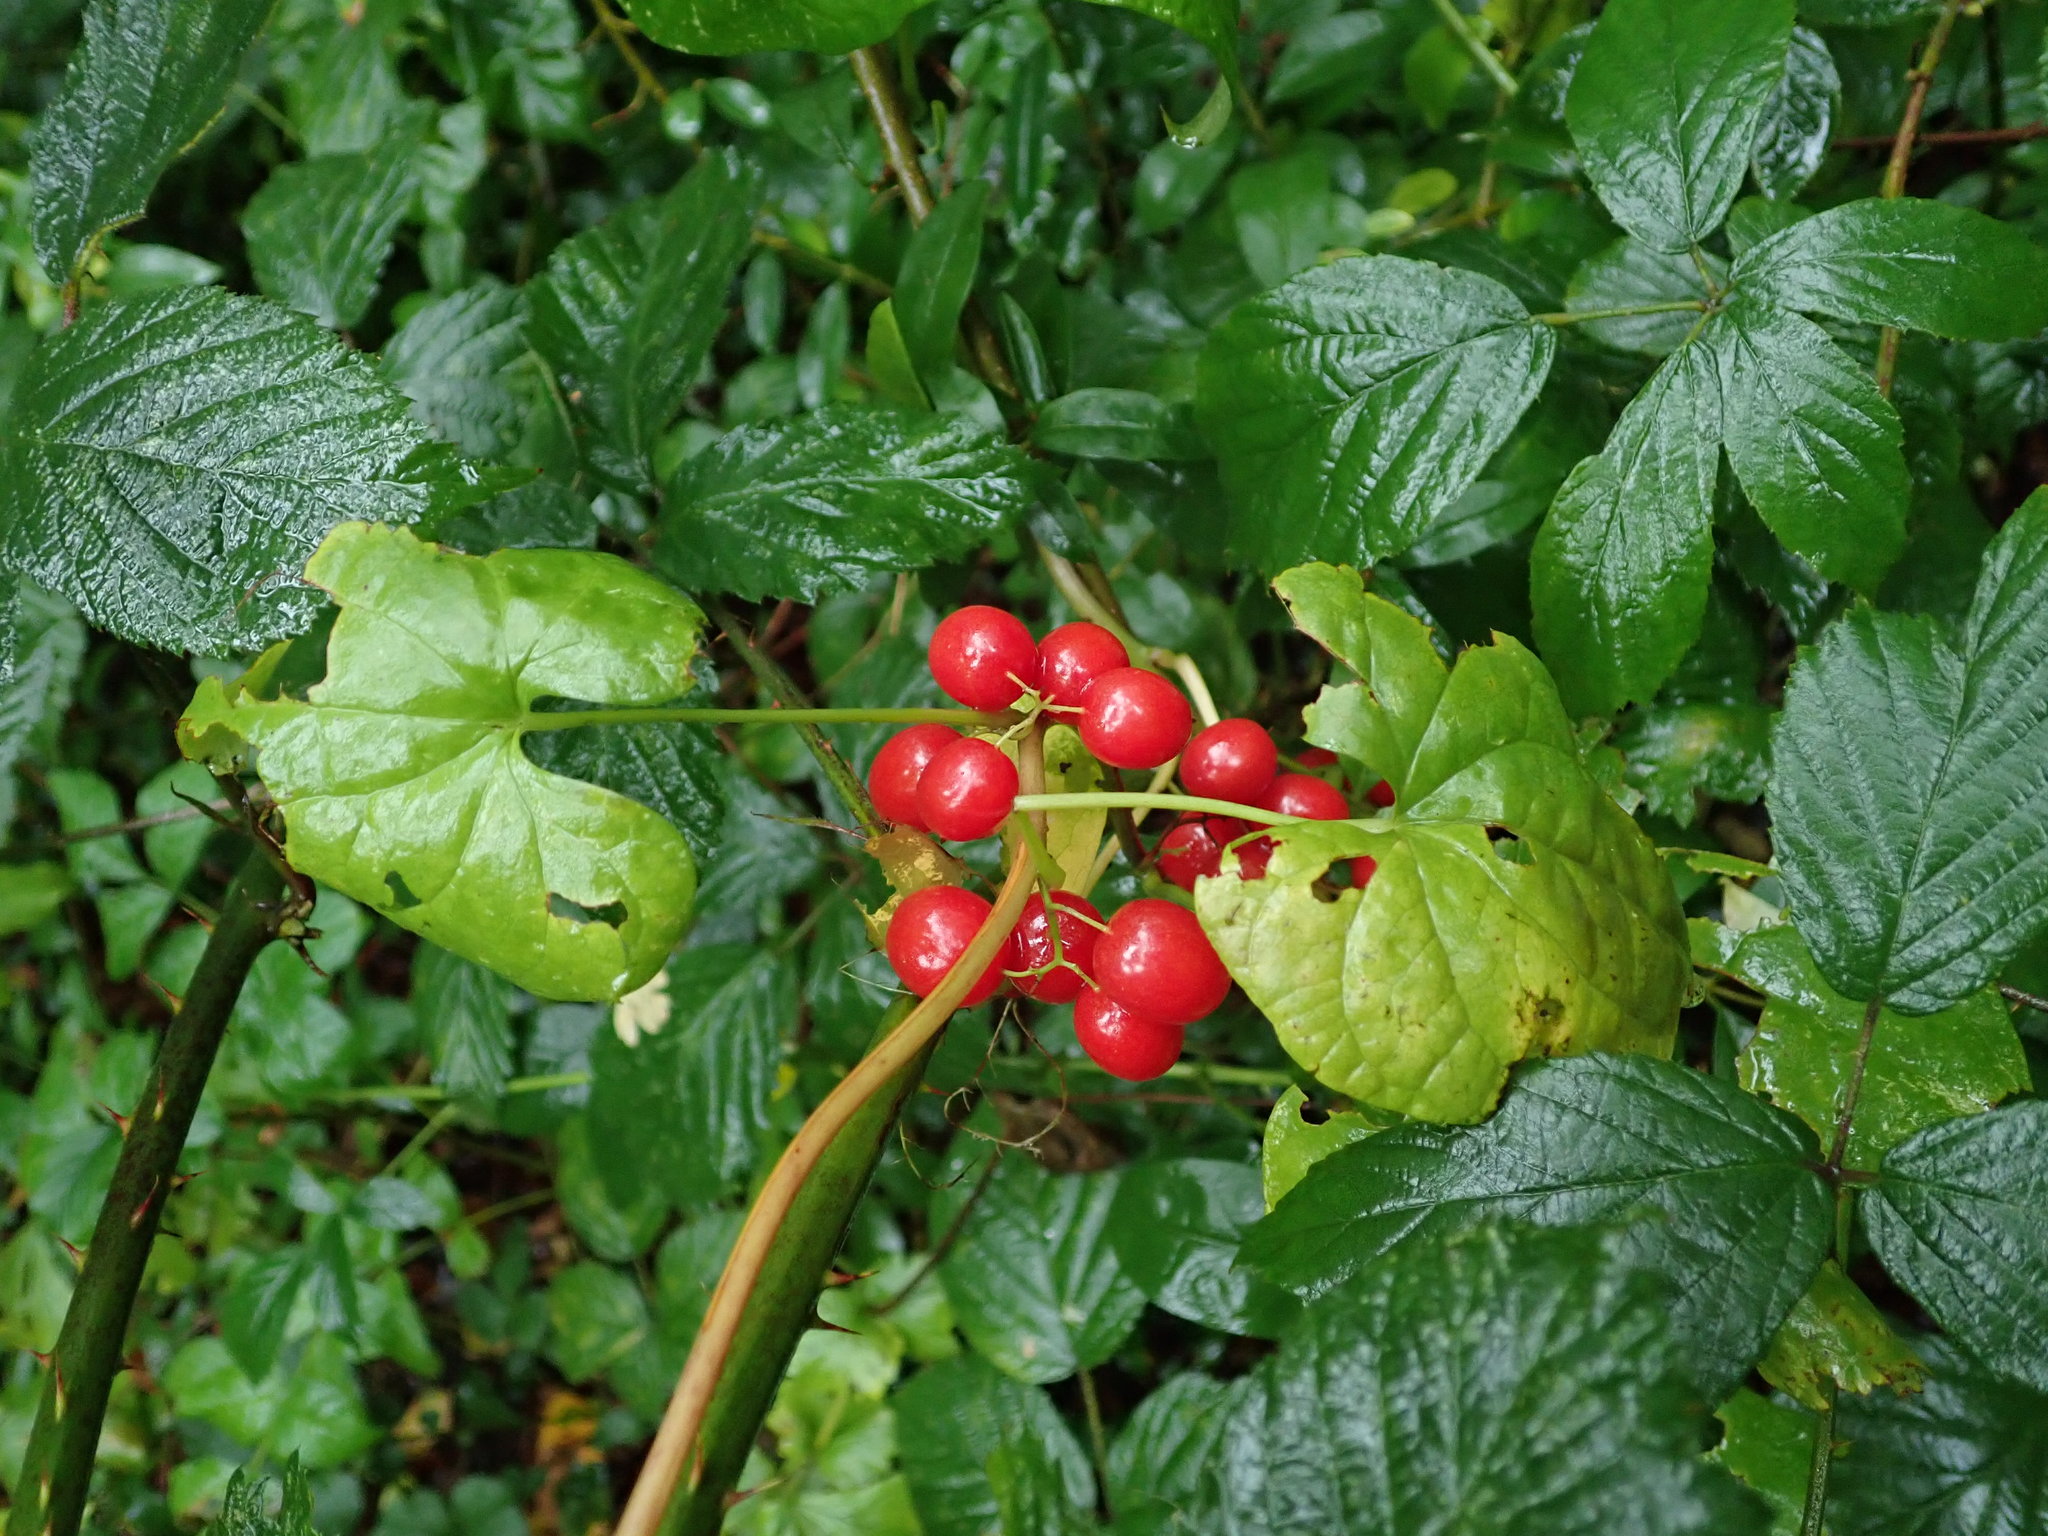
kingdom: Plantae
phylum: Tracheophyta
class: Liliopsida
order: Dioscoreales
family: Dioscoreaceae
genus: Dioscorea
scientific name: Dioscorea communis
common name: Black-bindweed
